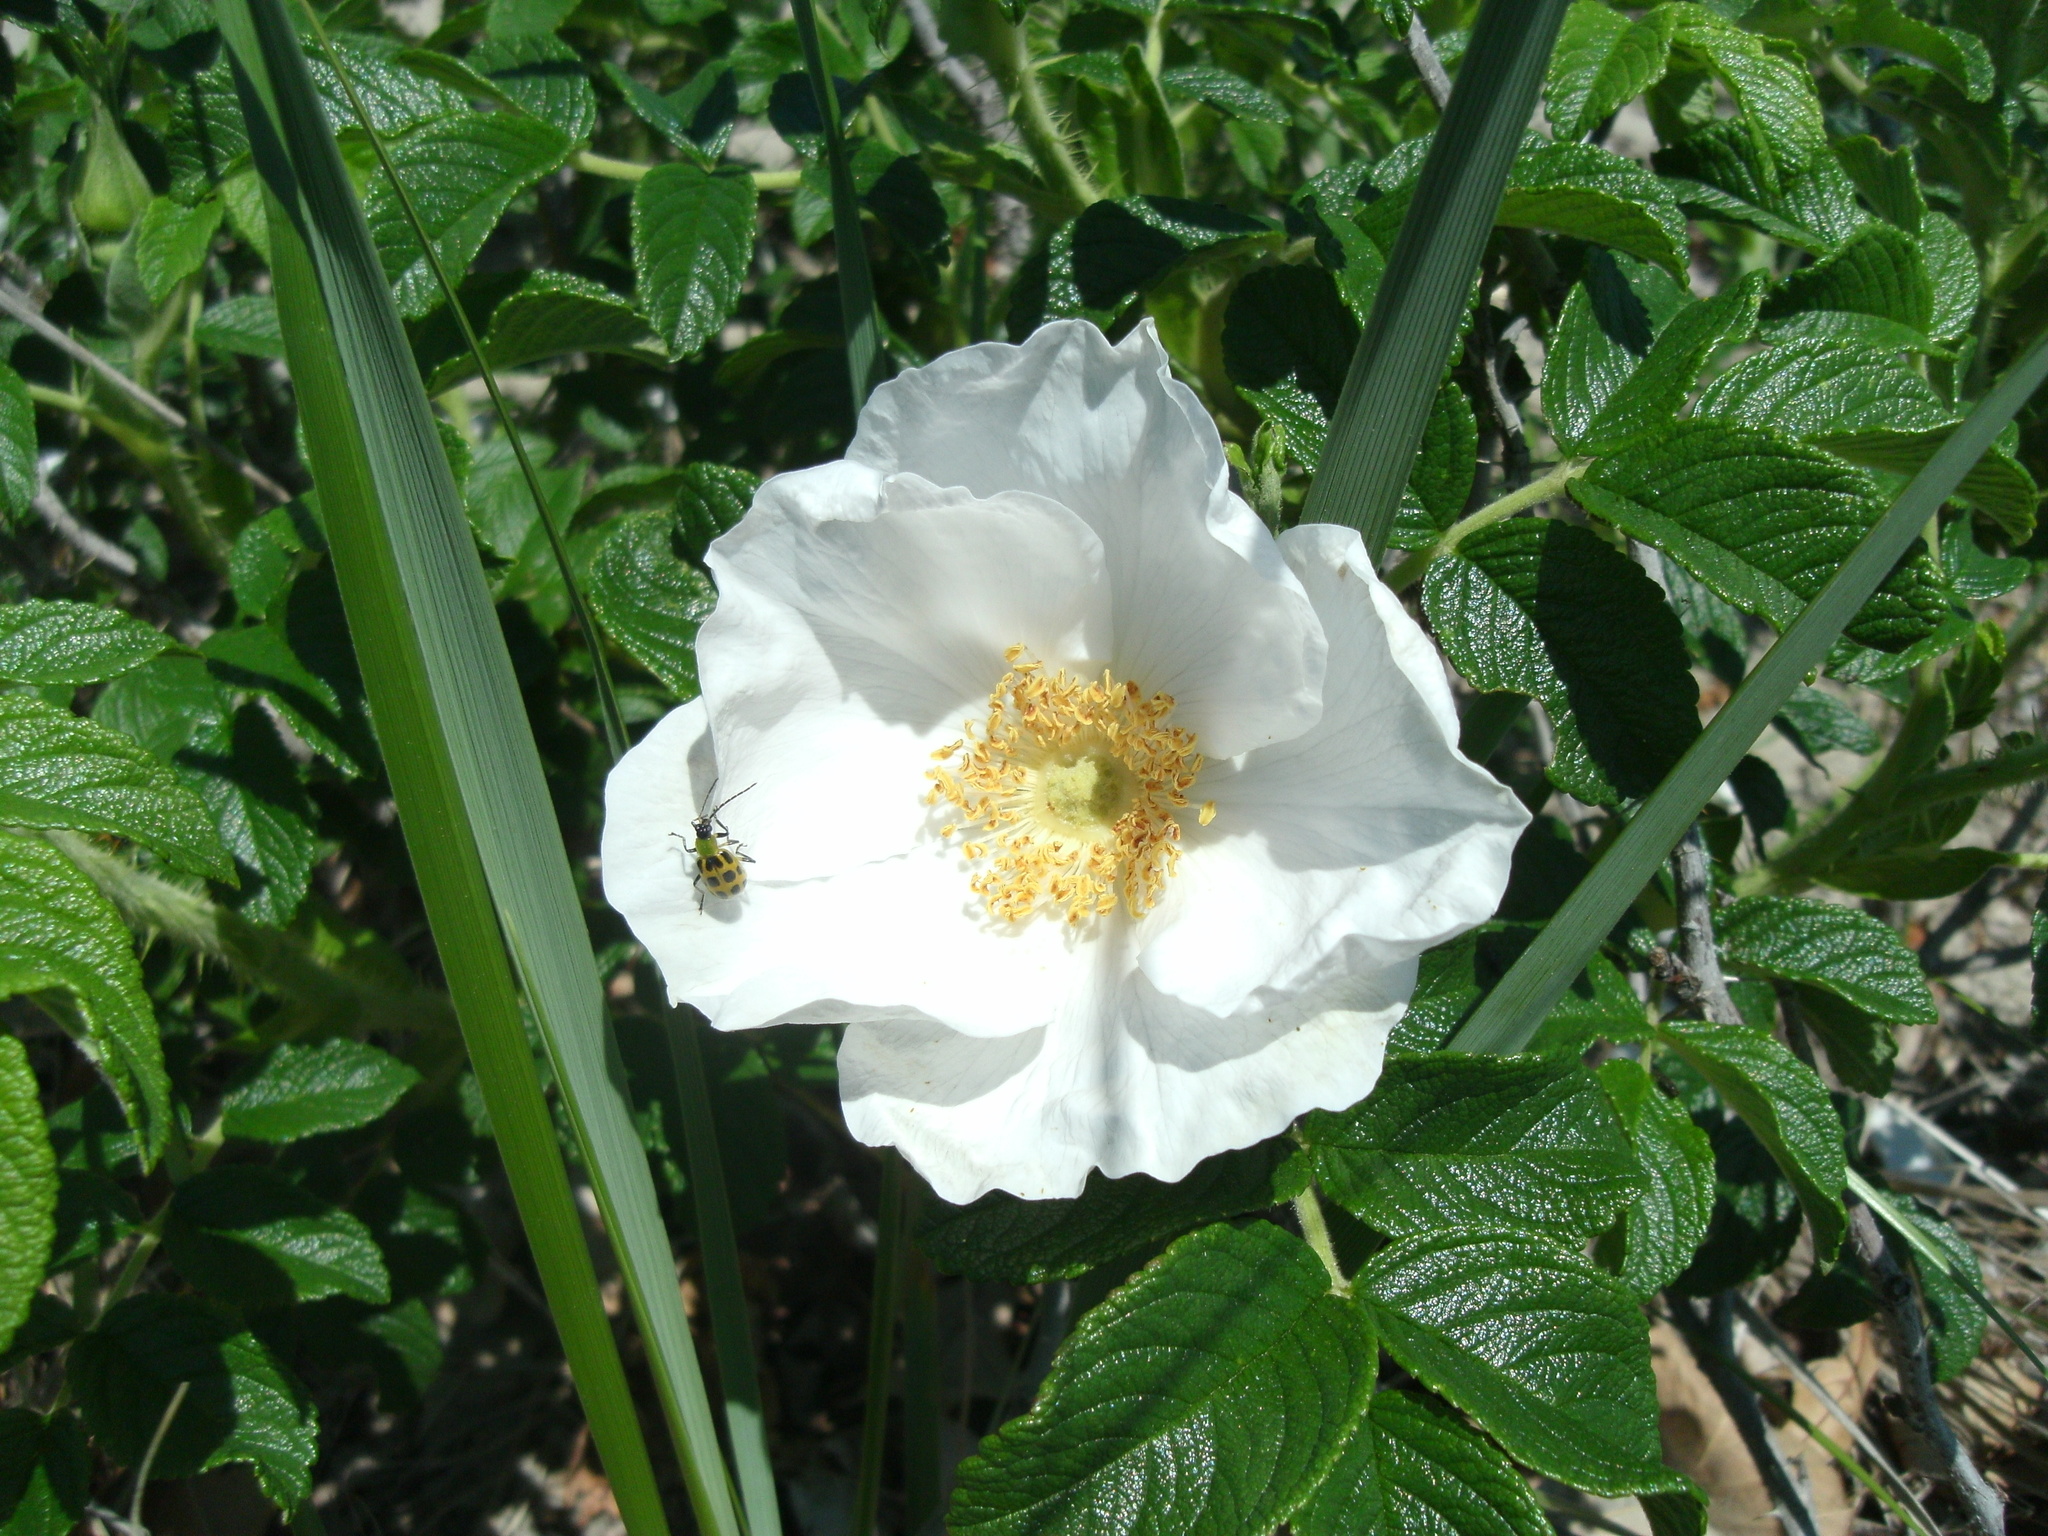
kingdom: Plantae
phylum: Tracheophyta
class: Magnoliopsida
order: Rosales
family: Rosaceae
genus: Rosa
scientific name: Rosa rugosa
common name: Japanese rose
